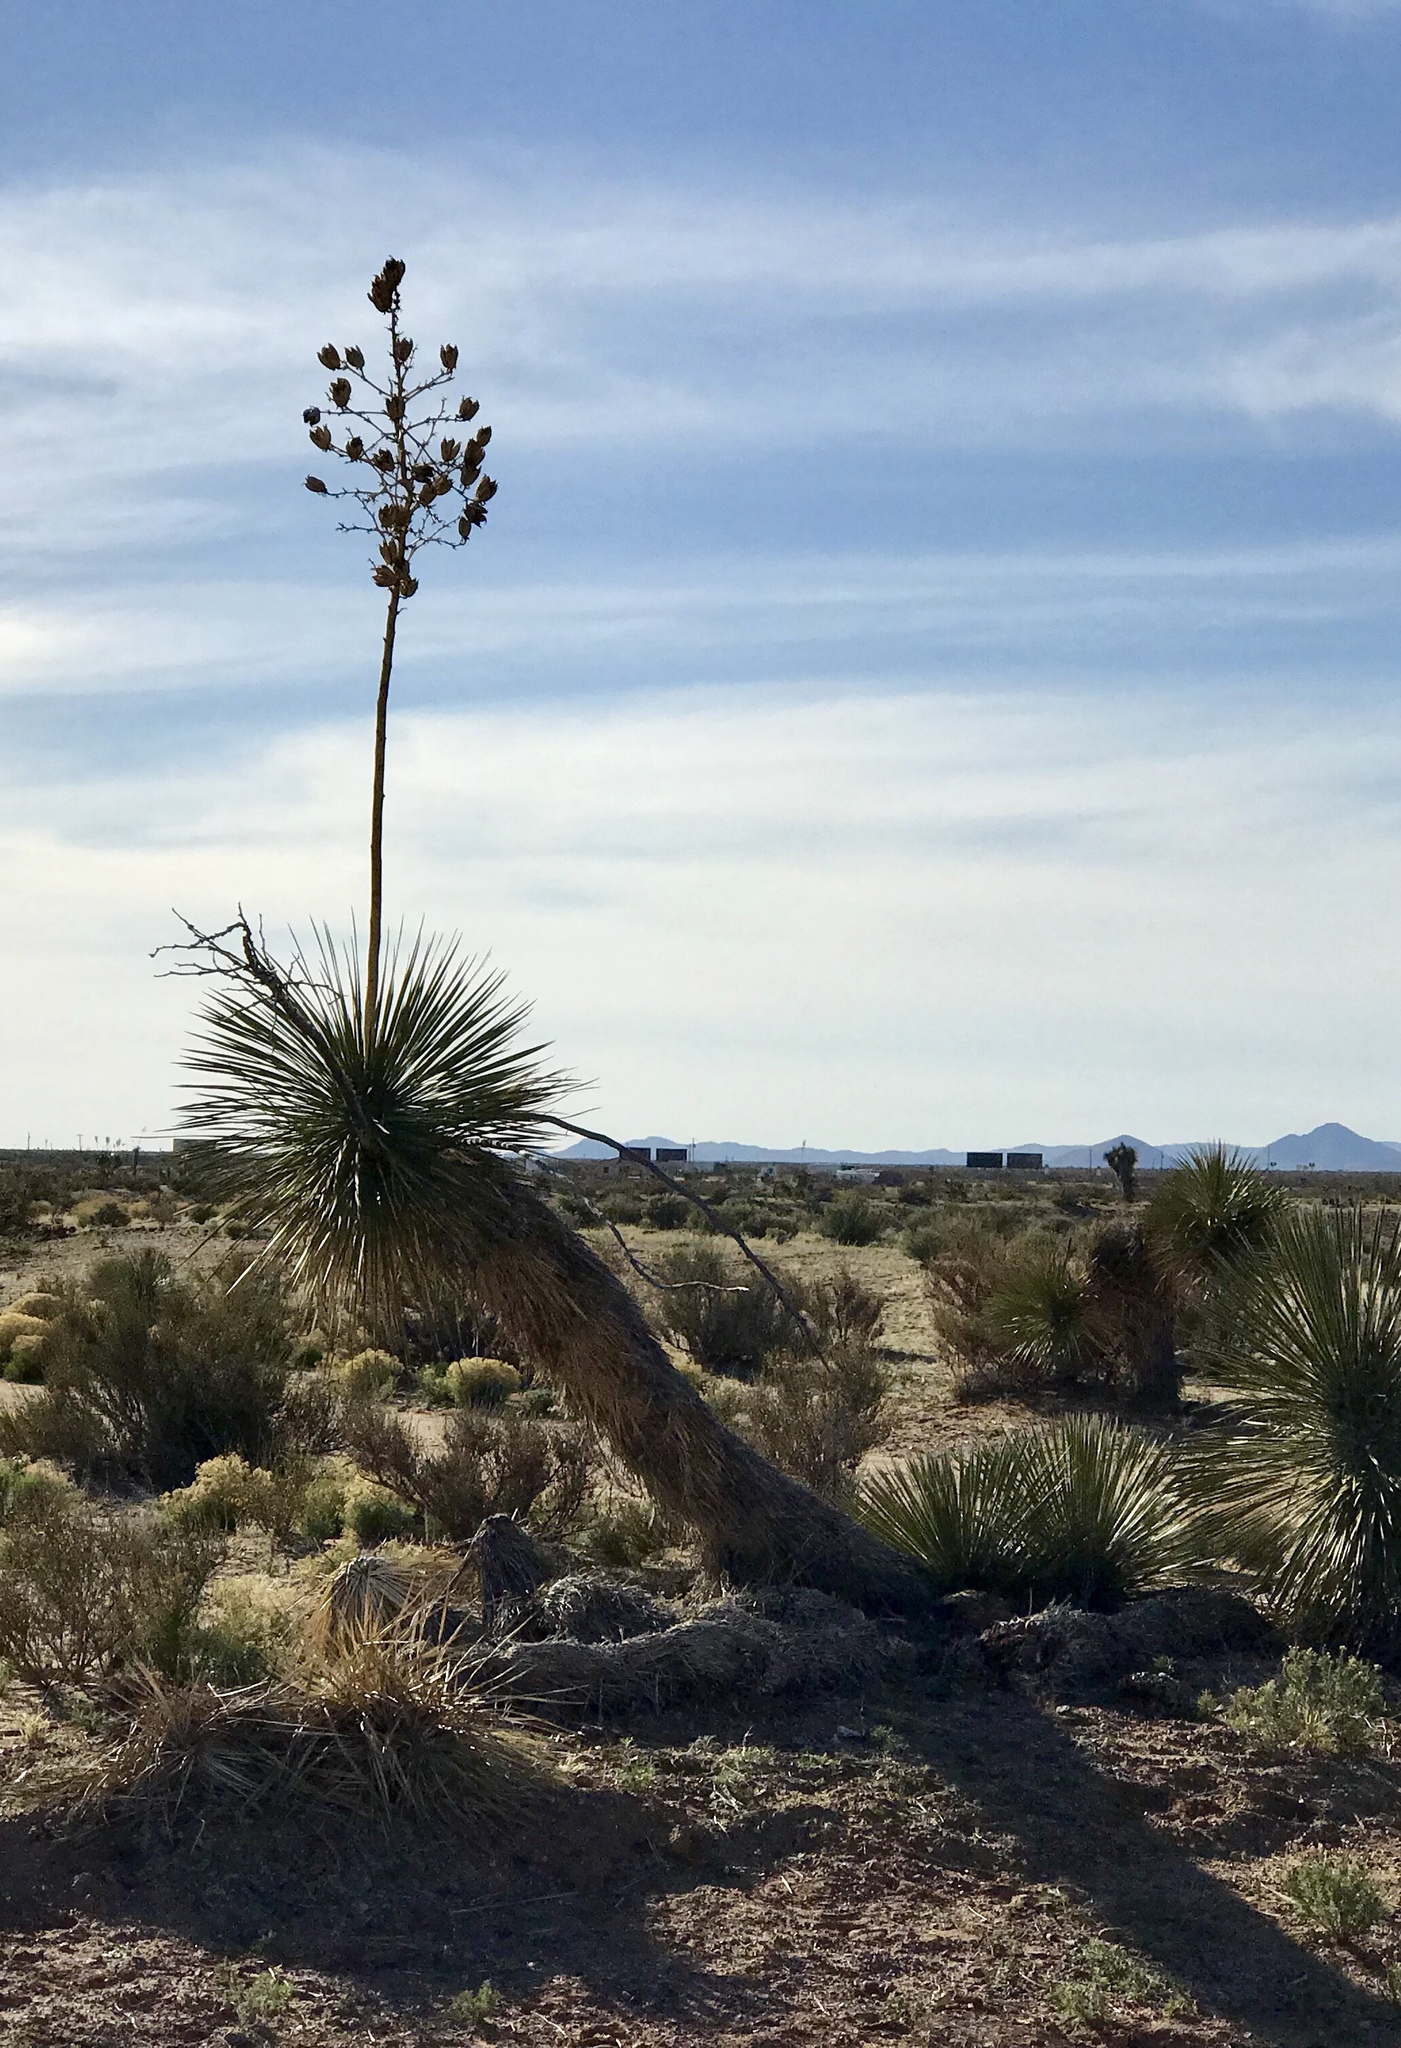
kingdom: Plantae
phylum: Tracheophyta
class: Liliopsida
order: Asparagales
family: Asparagaceae
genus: Yucca
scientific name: Yucca elata
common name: Palmella
